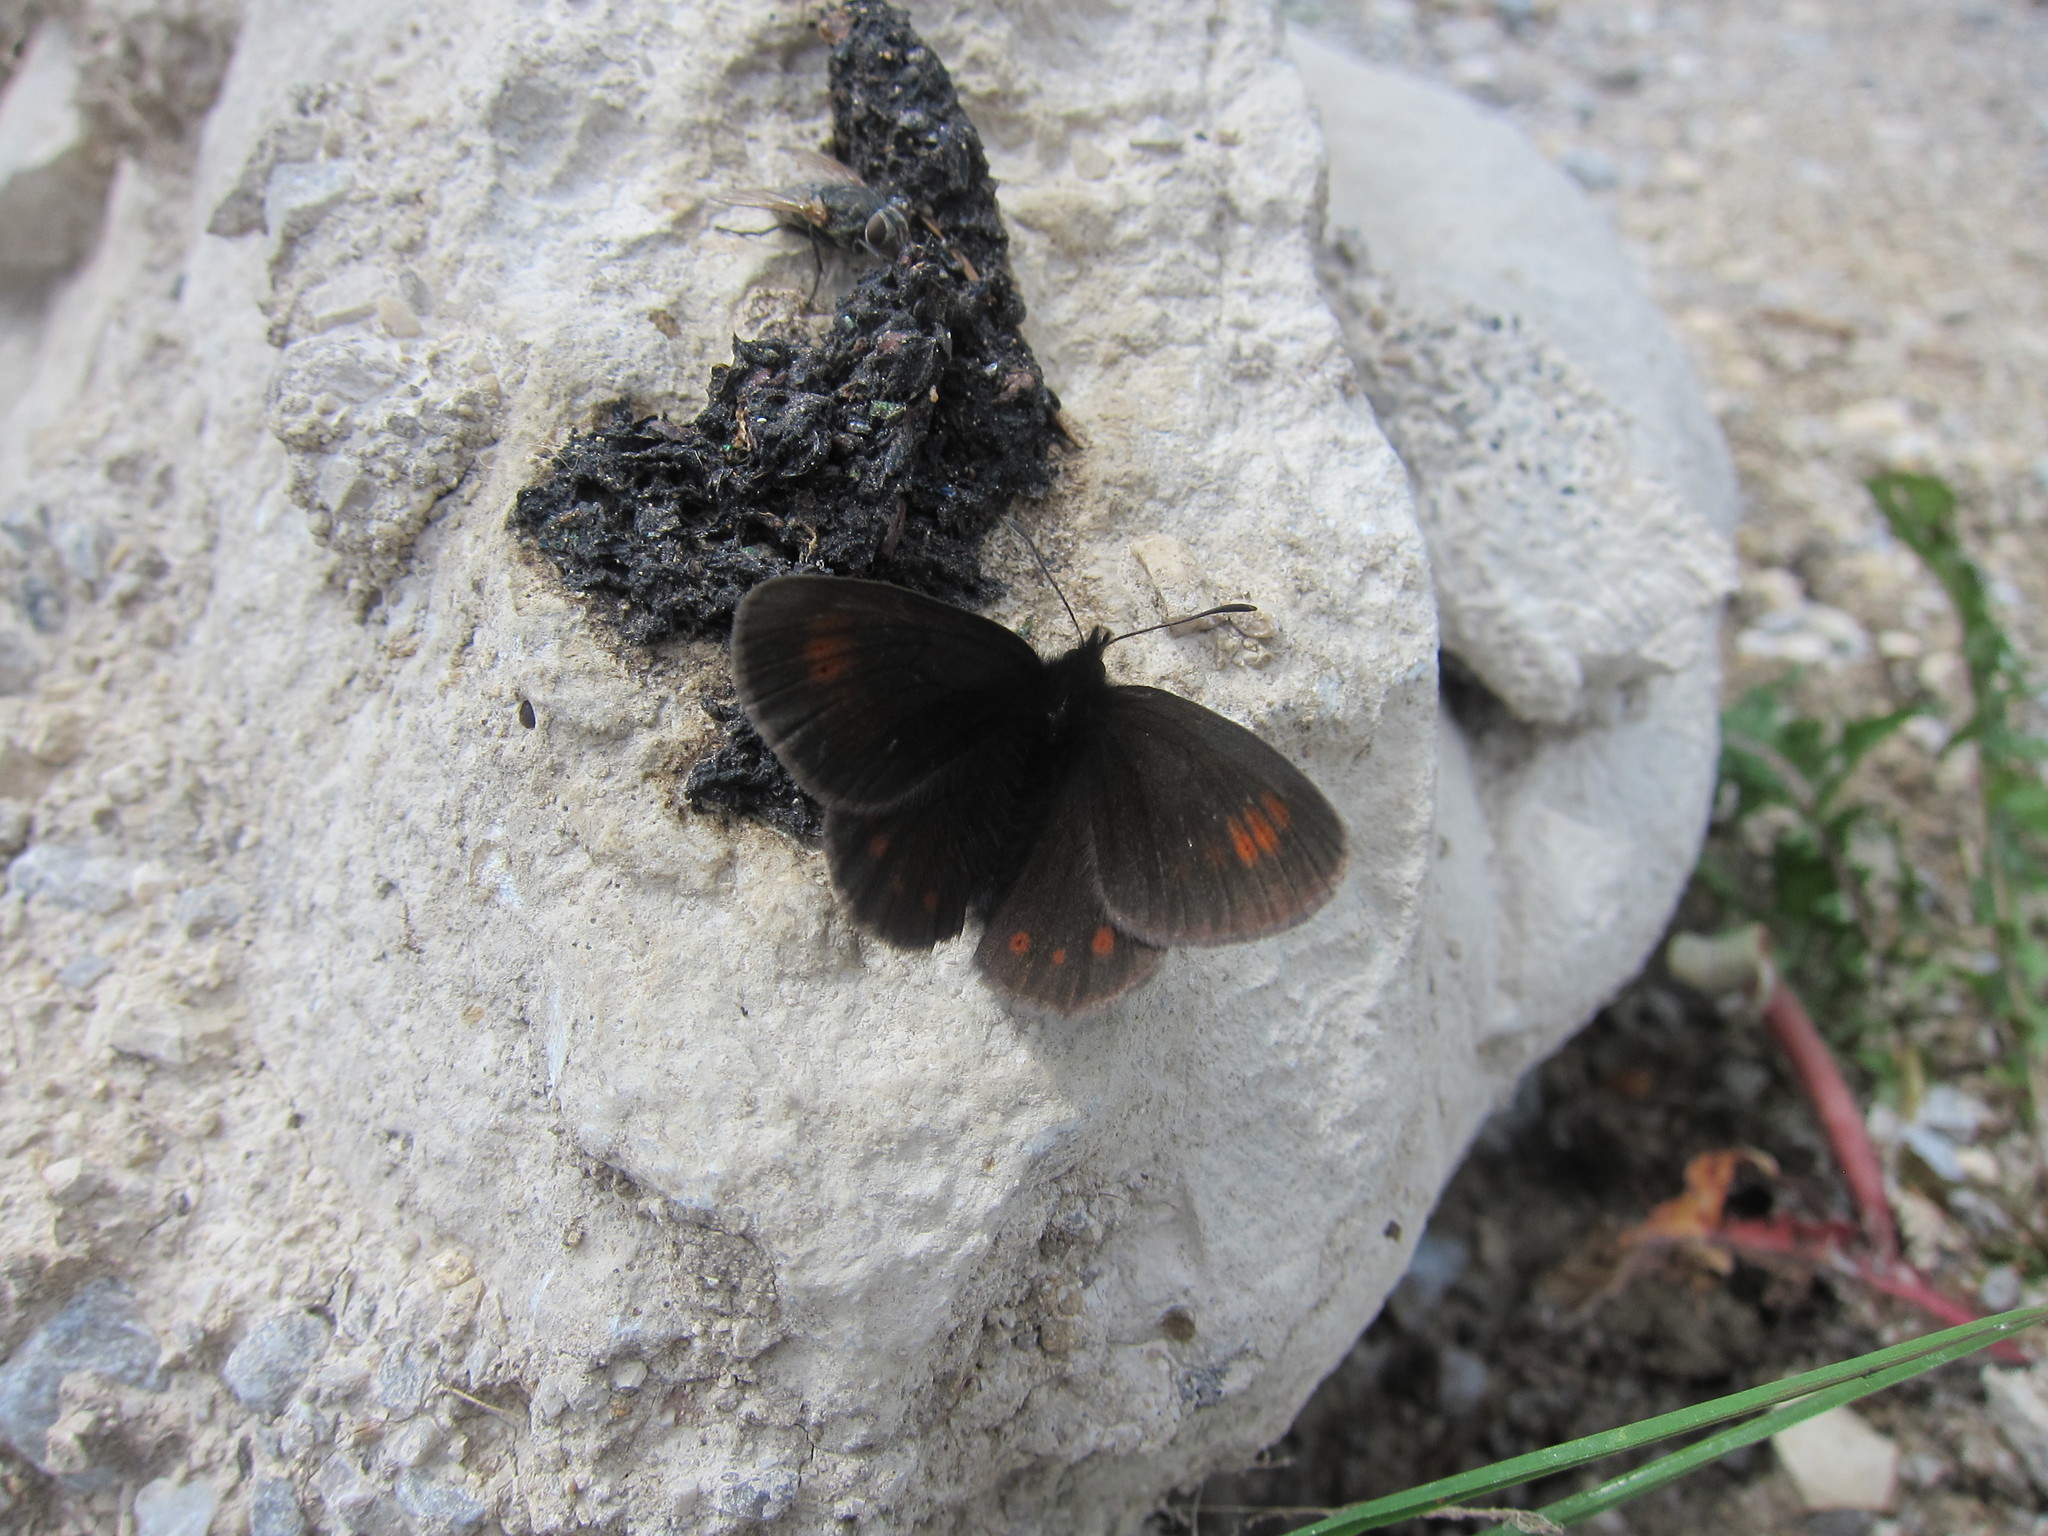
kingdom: Animalia
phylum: Arthropoda
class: Insecta
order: Lepidoptera
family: Nymphalidae
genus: Erebia
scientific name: Erebia oeme
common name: Bright-eyed ringlet
